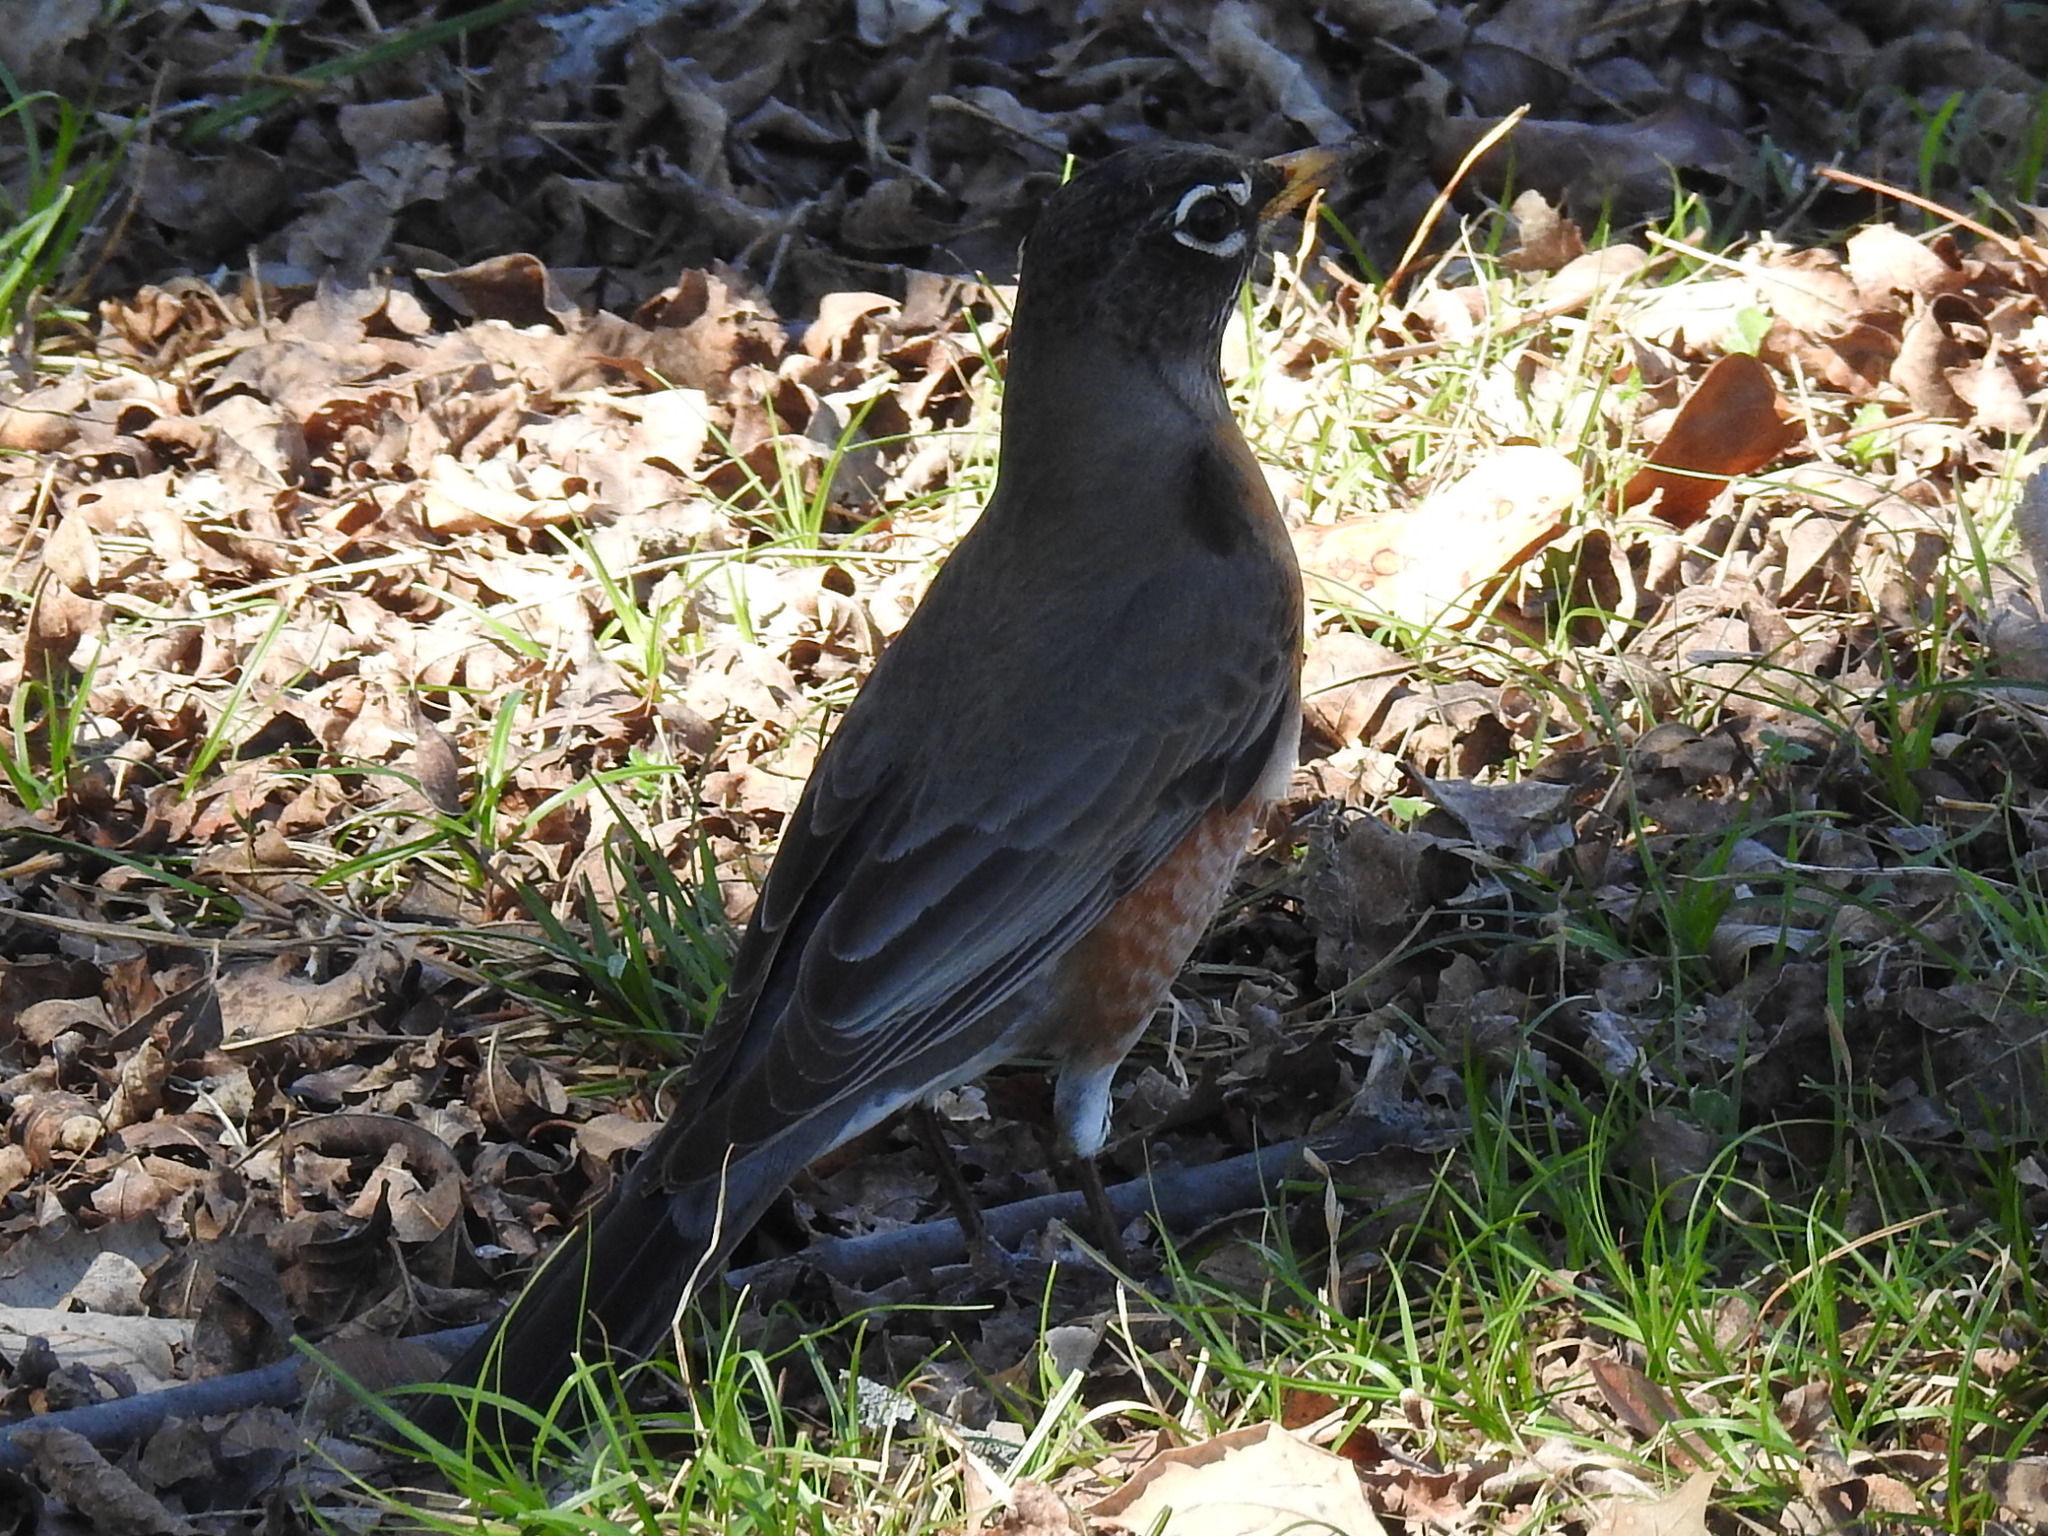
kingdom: Animalia
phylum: Chordata
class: Aves
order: Passeriformes
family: Turdidae
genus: Turdus
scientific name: Turdus migratorius
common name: American robin
